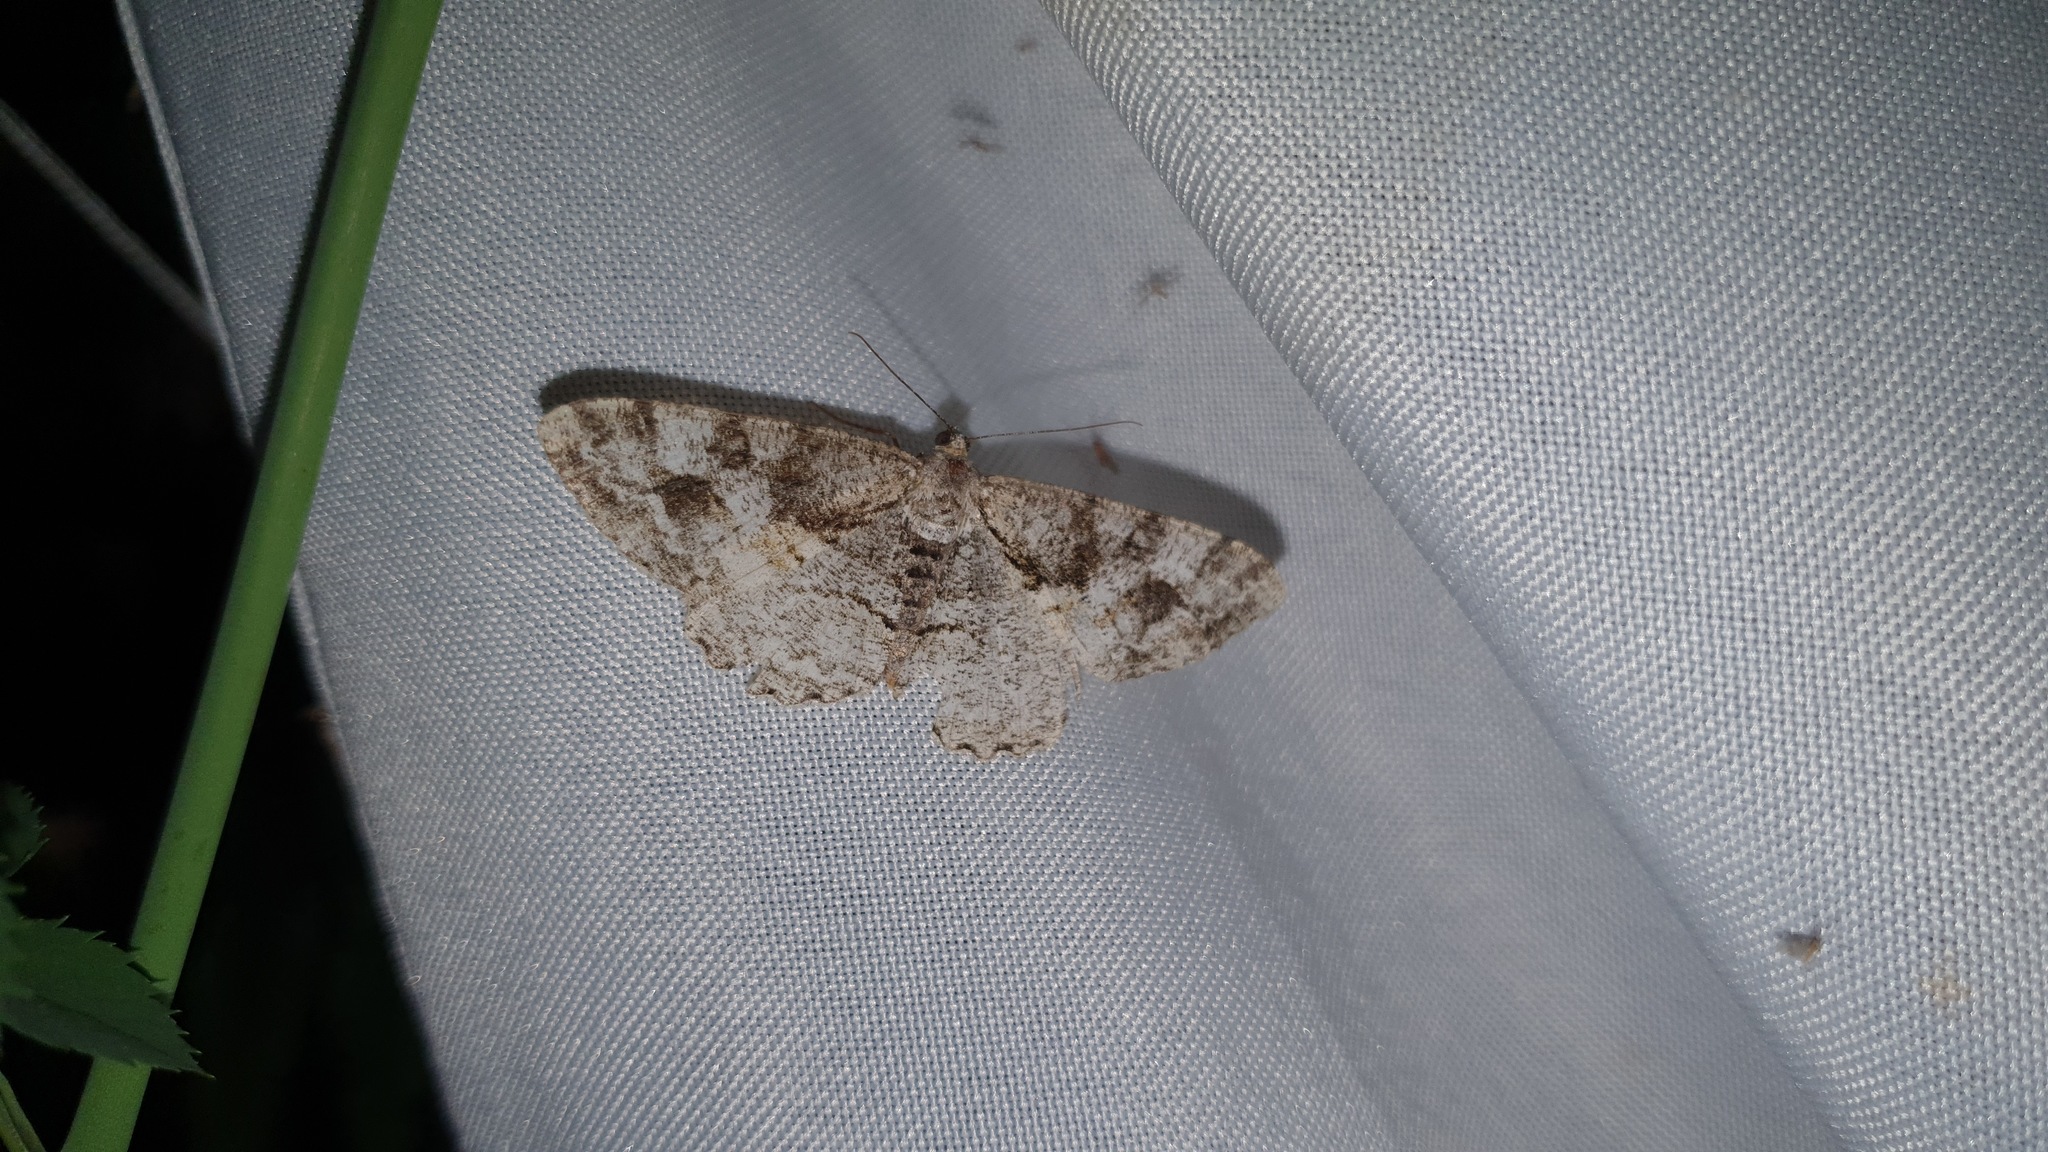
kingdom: Animalia
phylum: Arthropoda
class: Insecta
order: Lepidoptera
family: Geometridae
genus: Alcis
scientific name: Alcis repandata
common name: Mottled beauty
